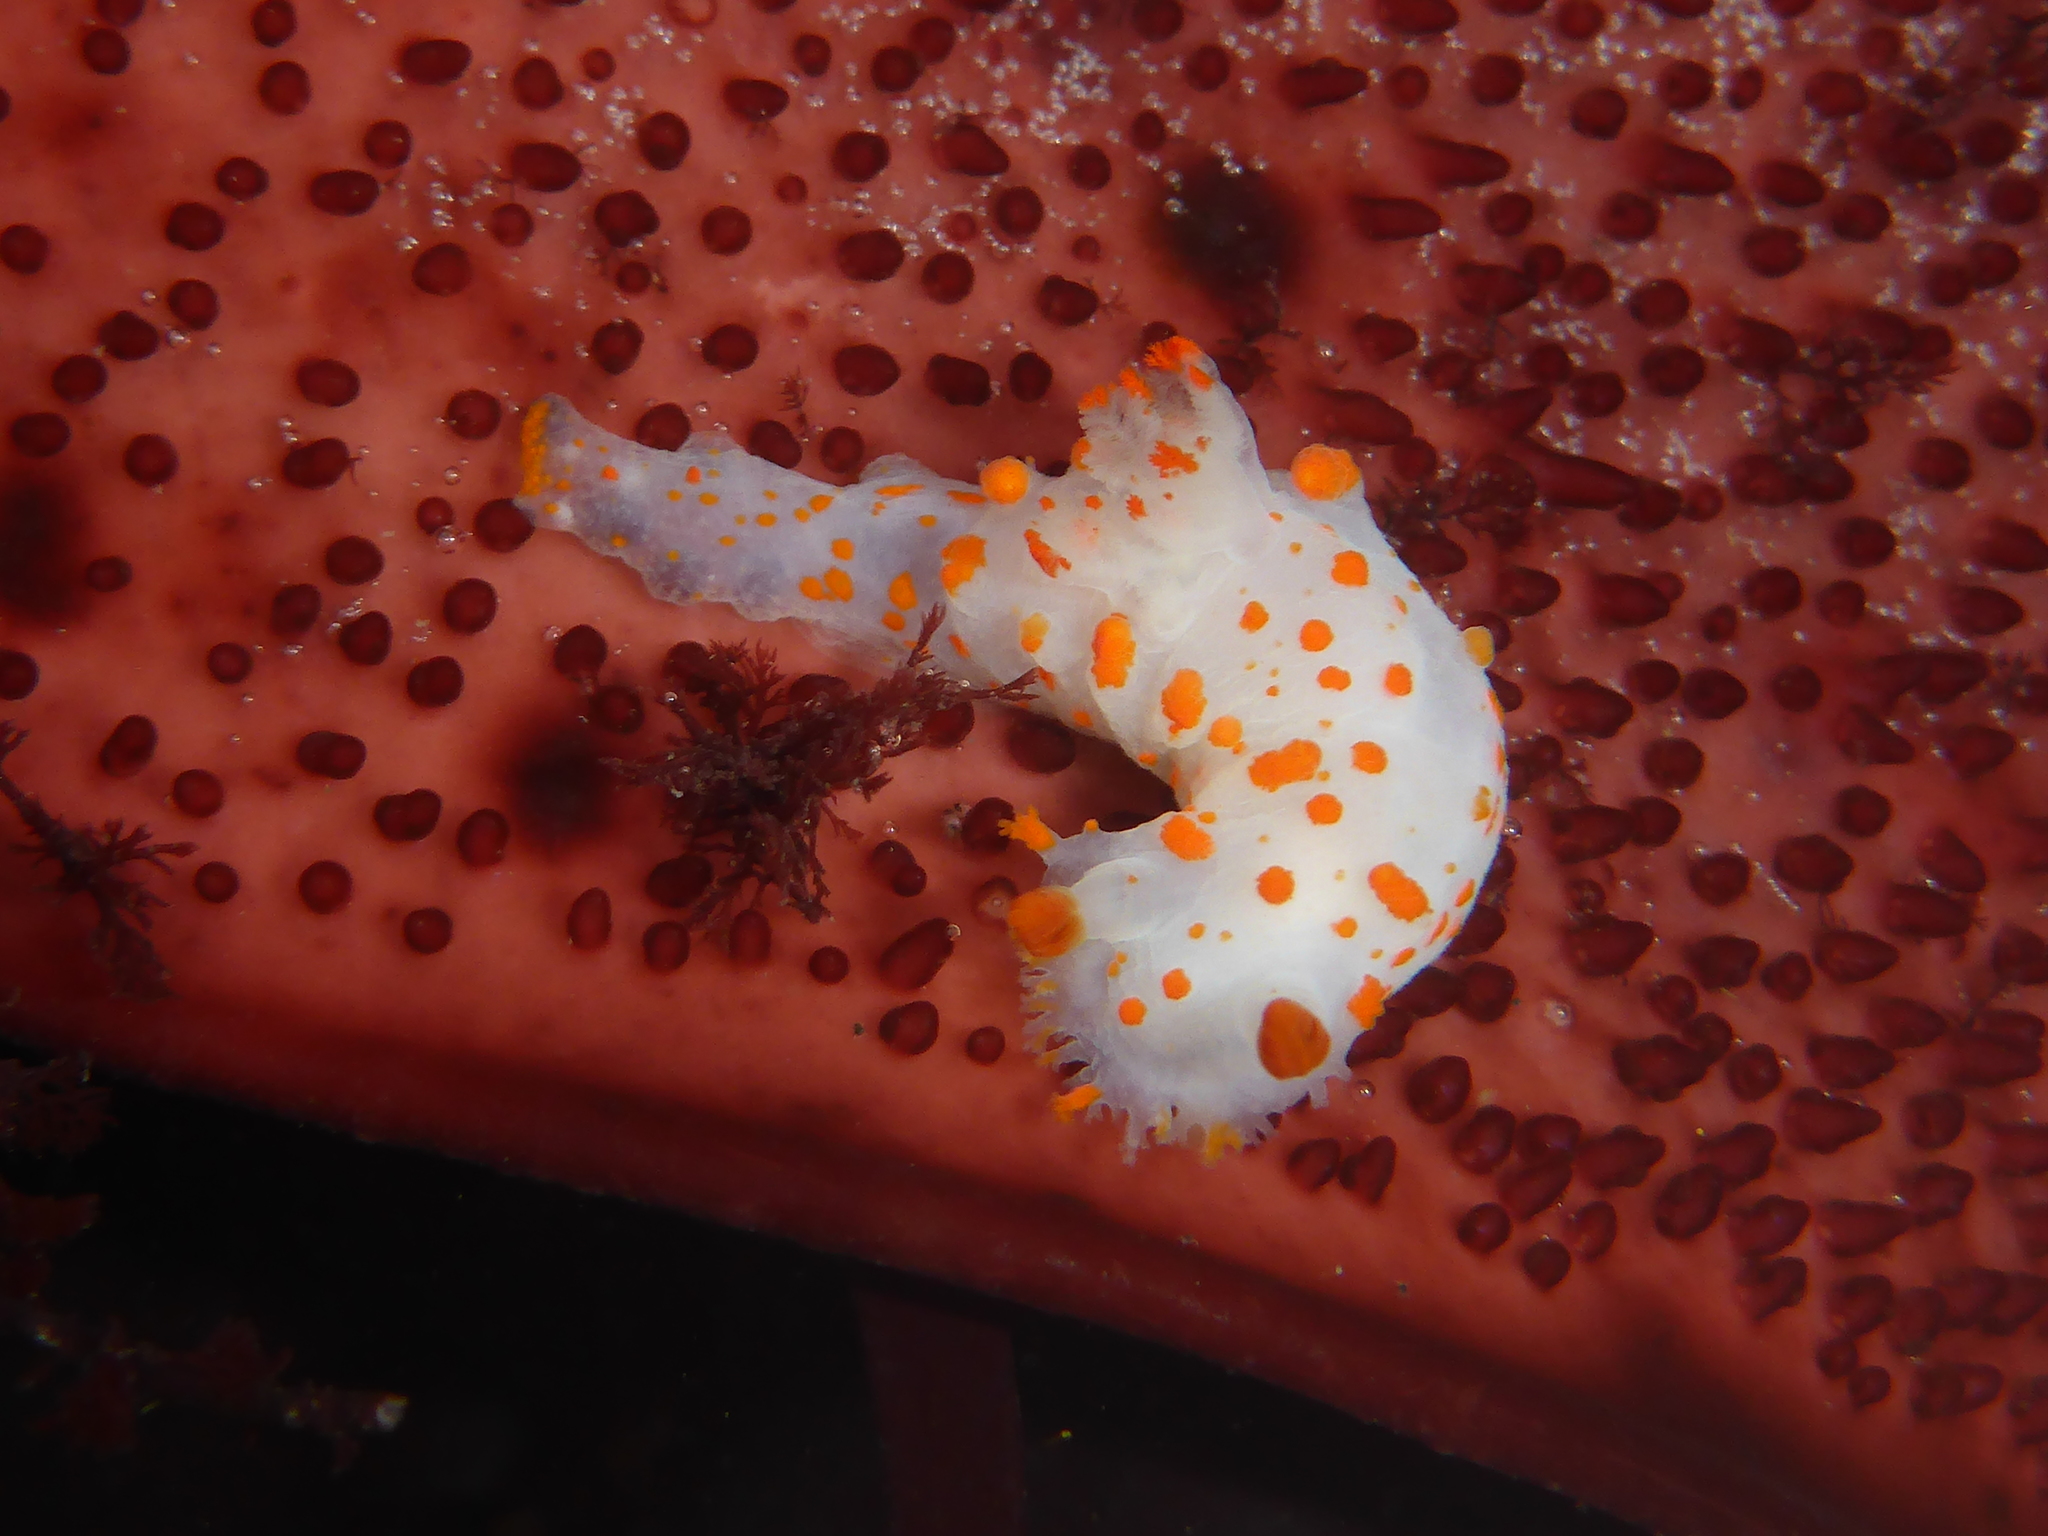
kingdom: Animalia
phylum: Mollusca
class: Gastropoda
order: Nudibranchia
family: Polyceridae
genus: Triopha
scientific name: Triopha catalinae
